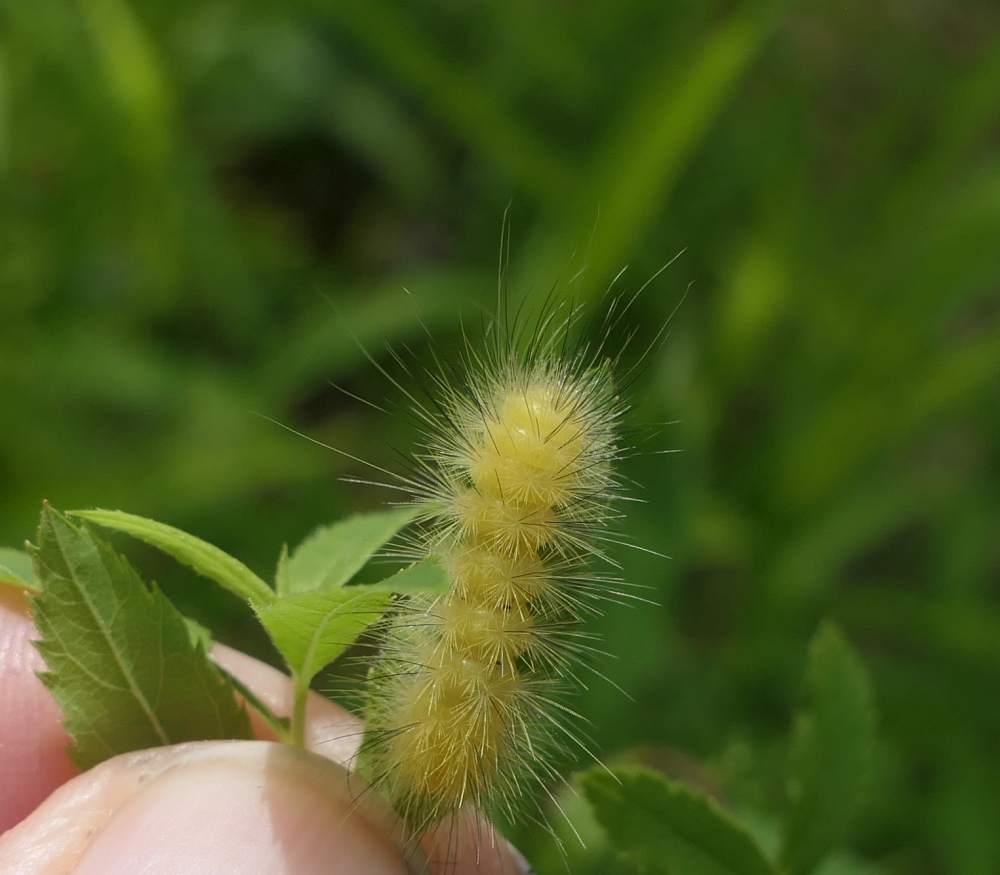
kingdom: Animalia
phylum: Arthropoda
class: Insecta
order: Lepidoptera
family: Erebidae
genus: Spilosoma
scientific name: Spilosoma virginica
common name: Virginia tiger moth
